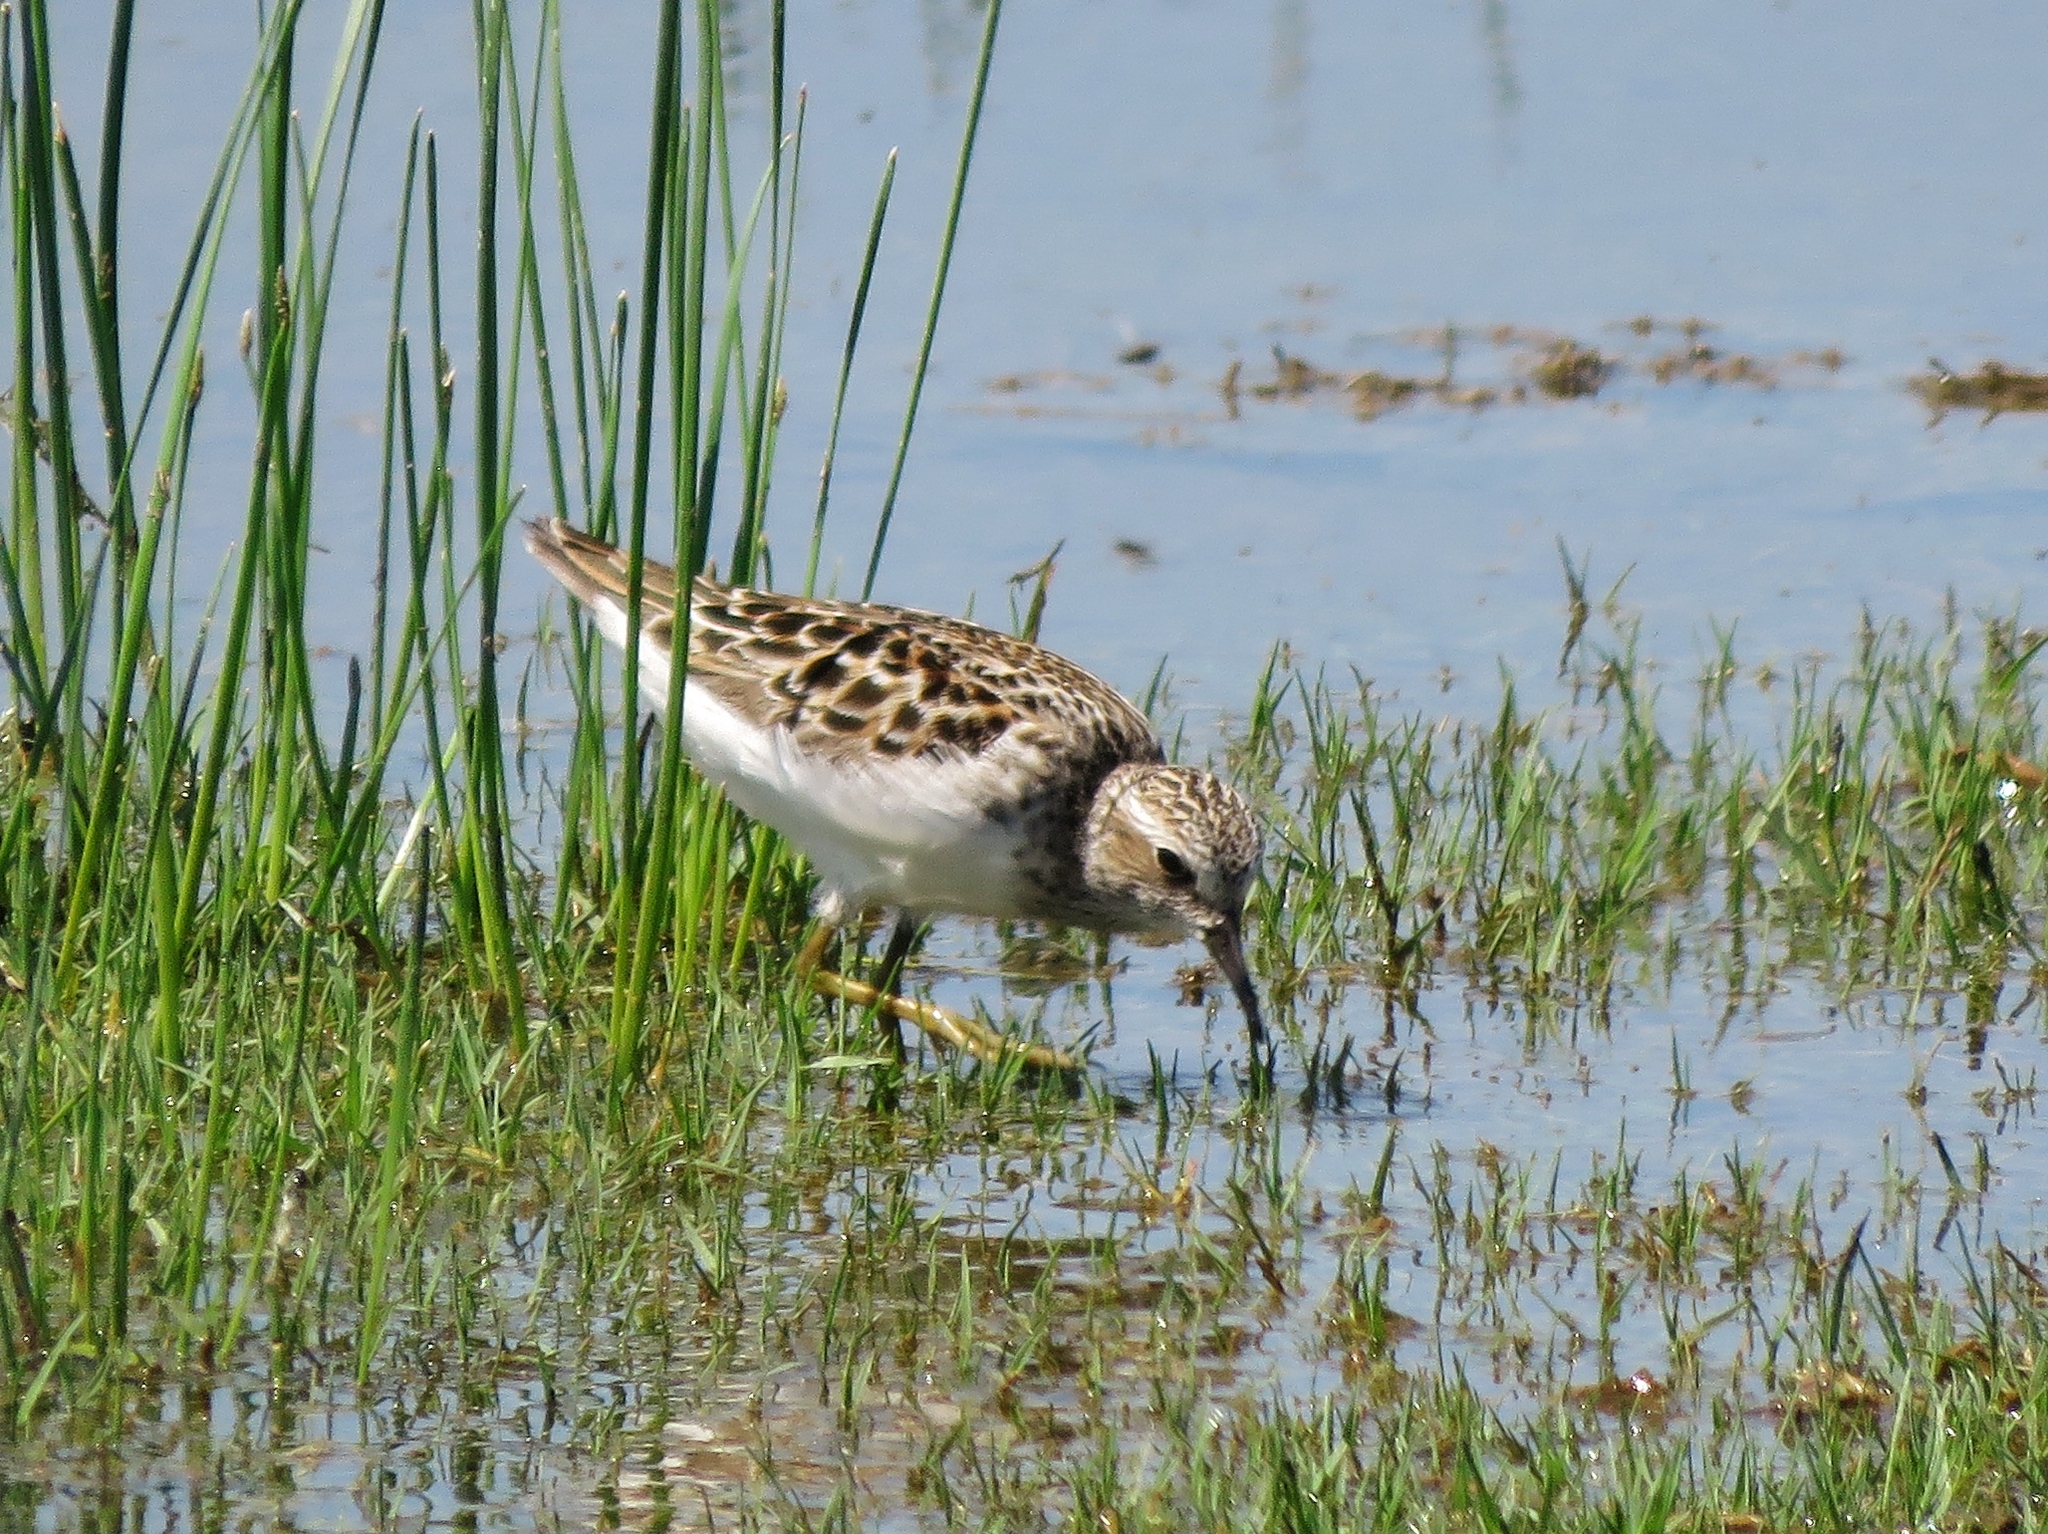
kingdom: Animalia
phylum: Chordata
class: Aves
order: Charadriiformes
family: Scolopacidae
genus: Calidris
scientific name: Calidris minutilla
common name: Least sandpiper
